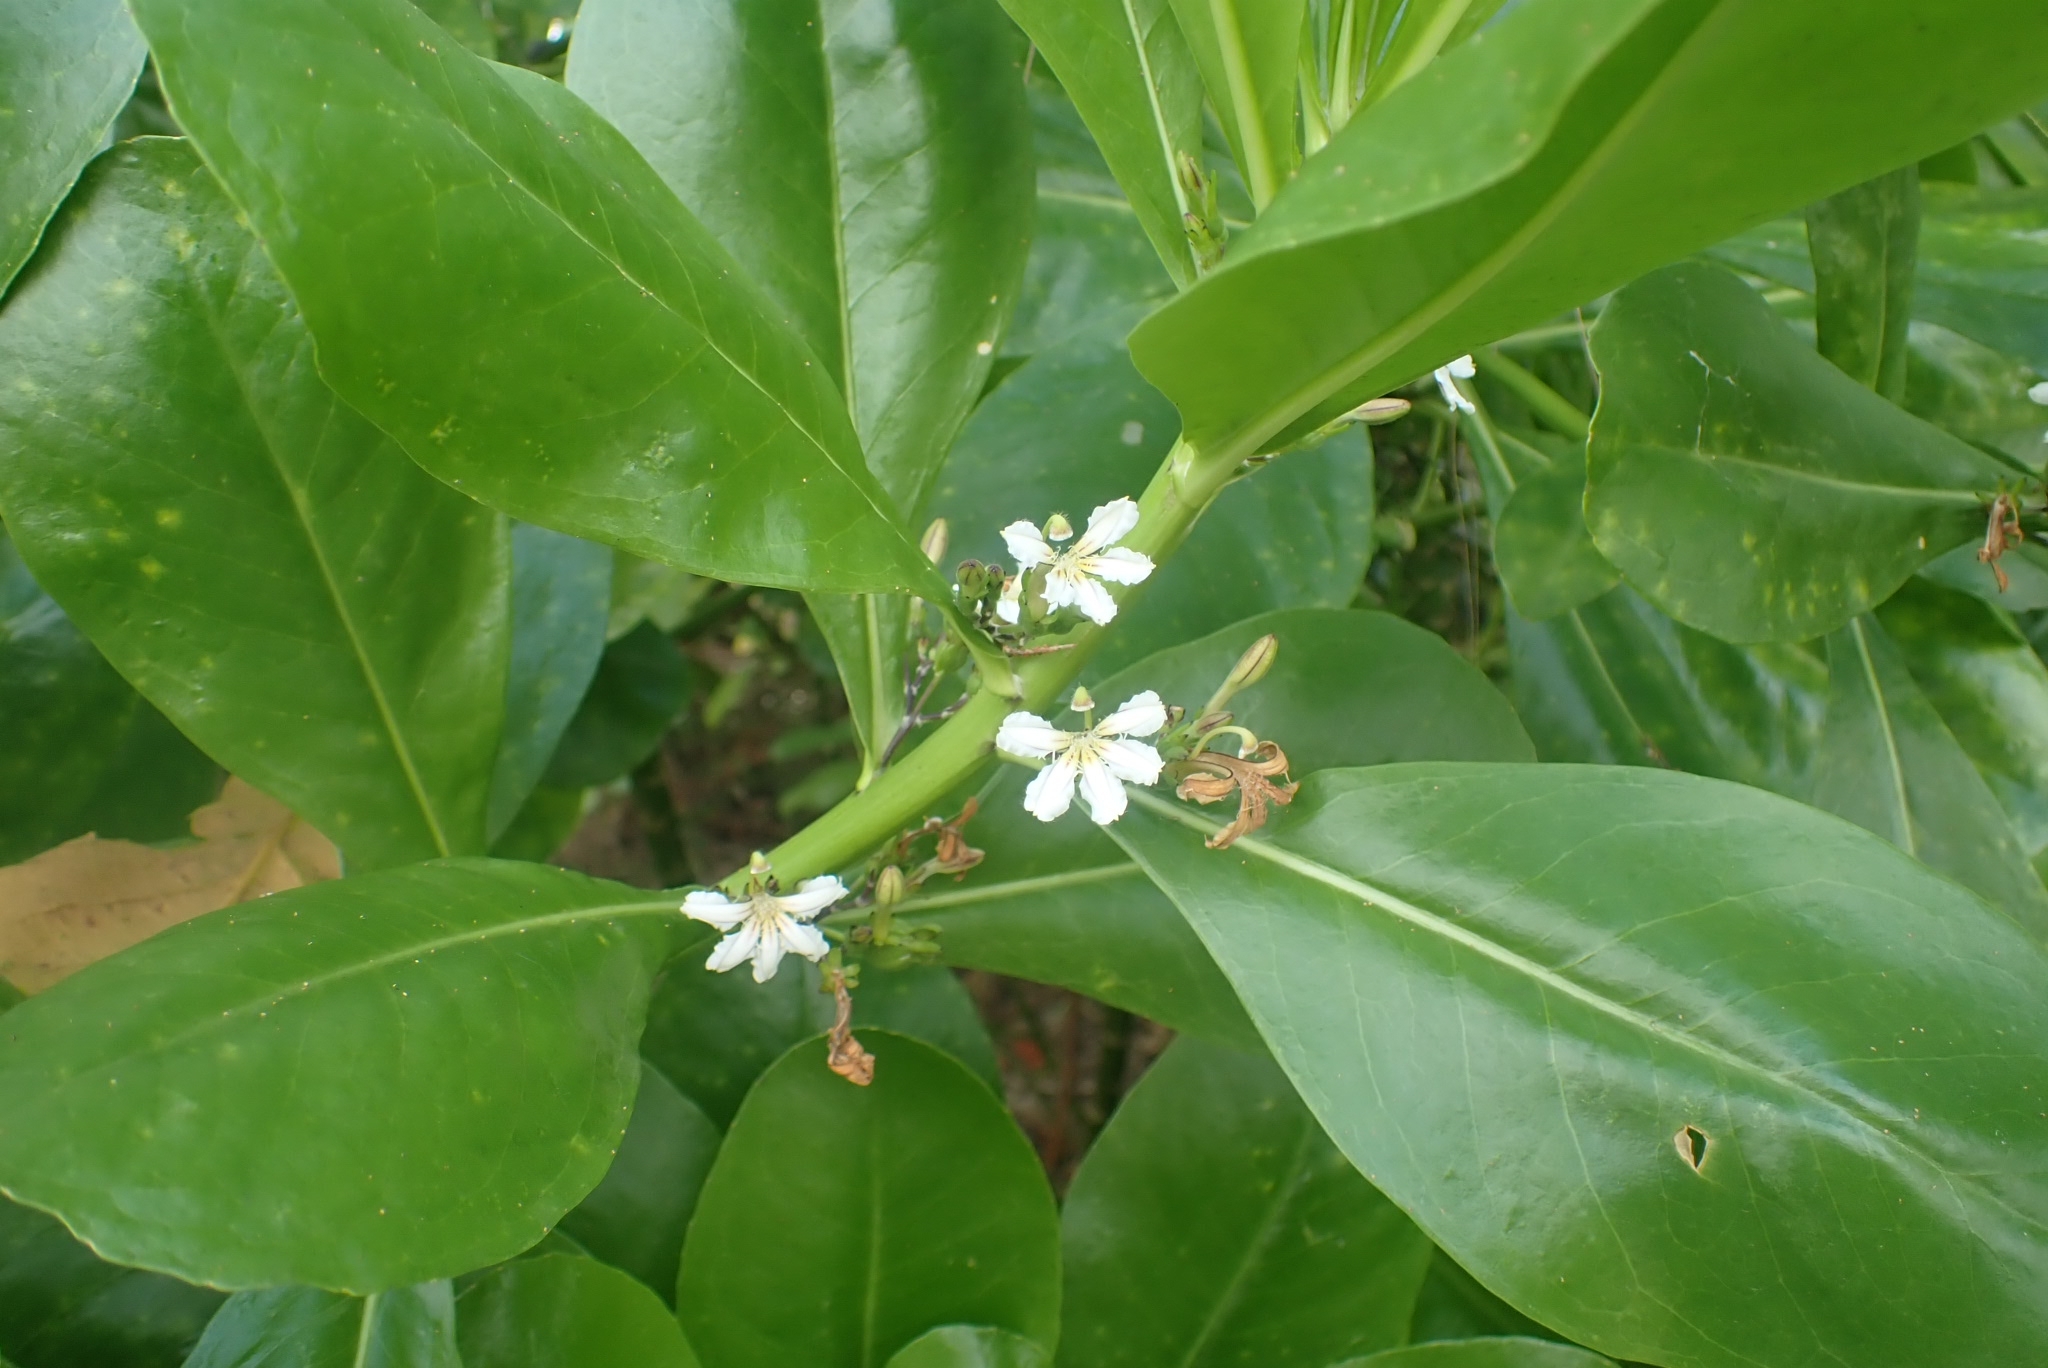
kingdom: Plantae
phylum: Tracheophyta
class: Magnoliopsida
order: Asterales
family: Goodeniaceae
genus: Scaevola
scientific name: Scaevola taccada
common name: Sea lettucetree
